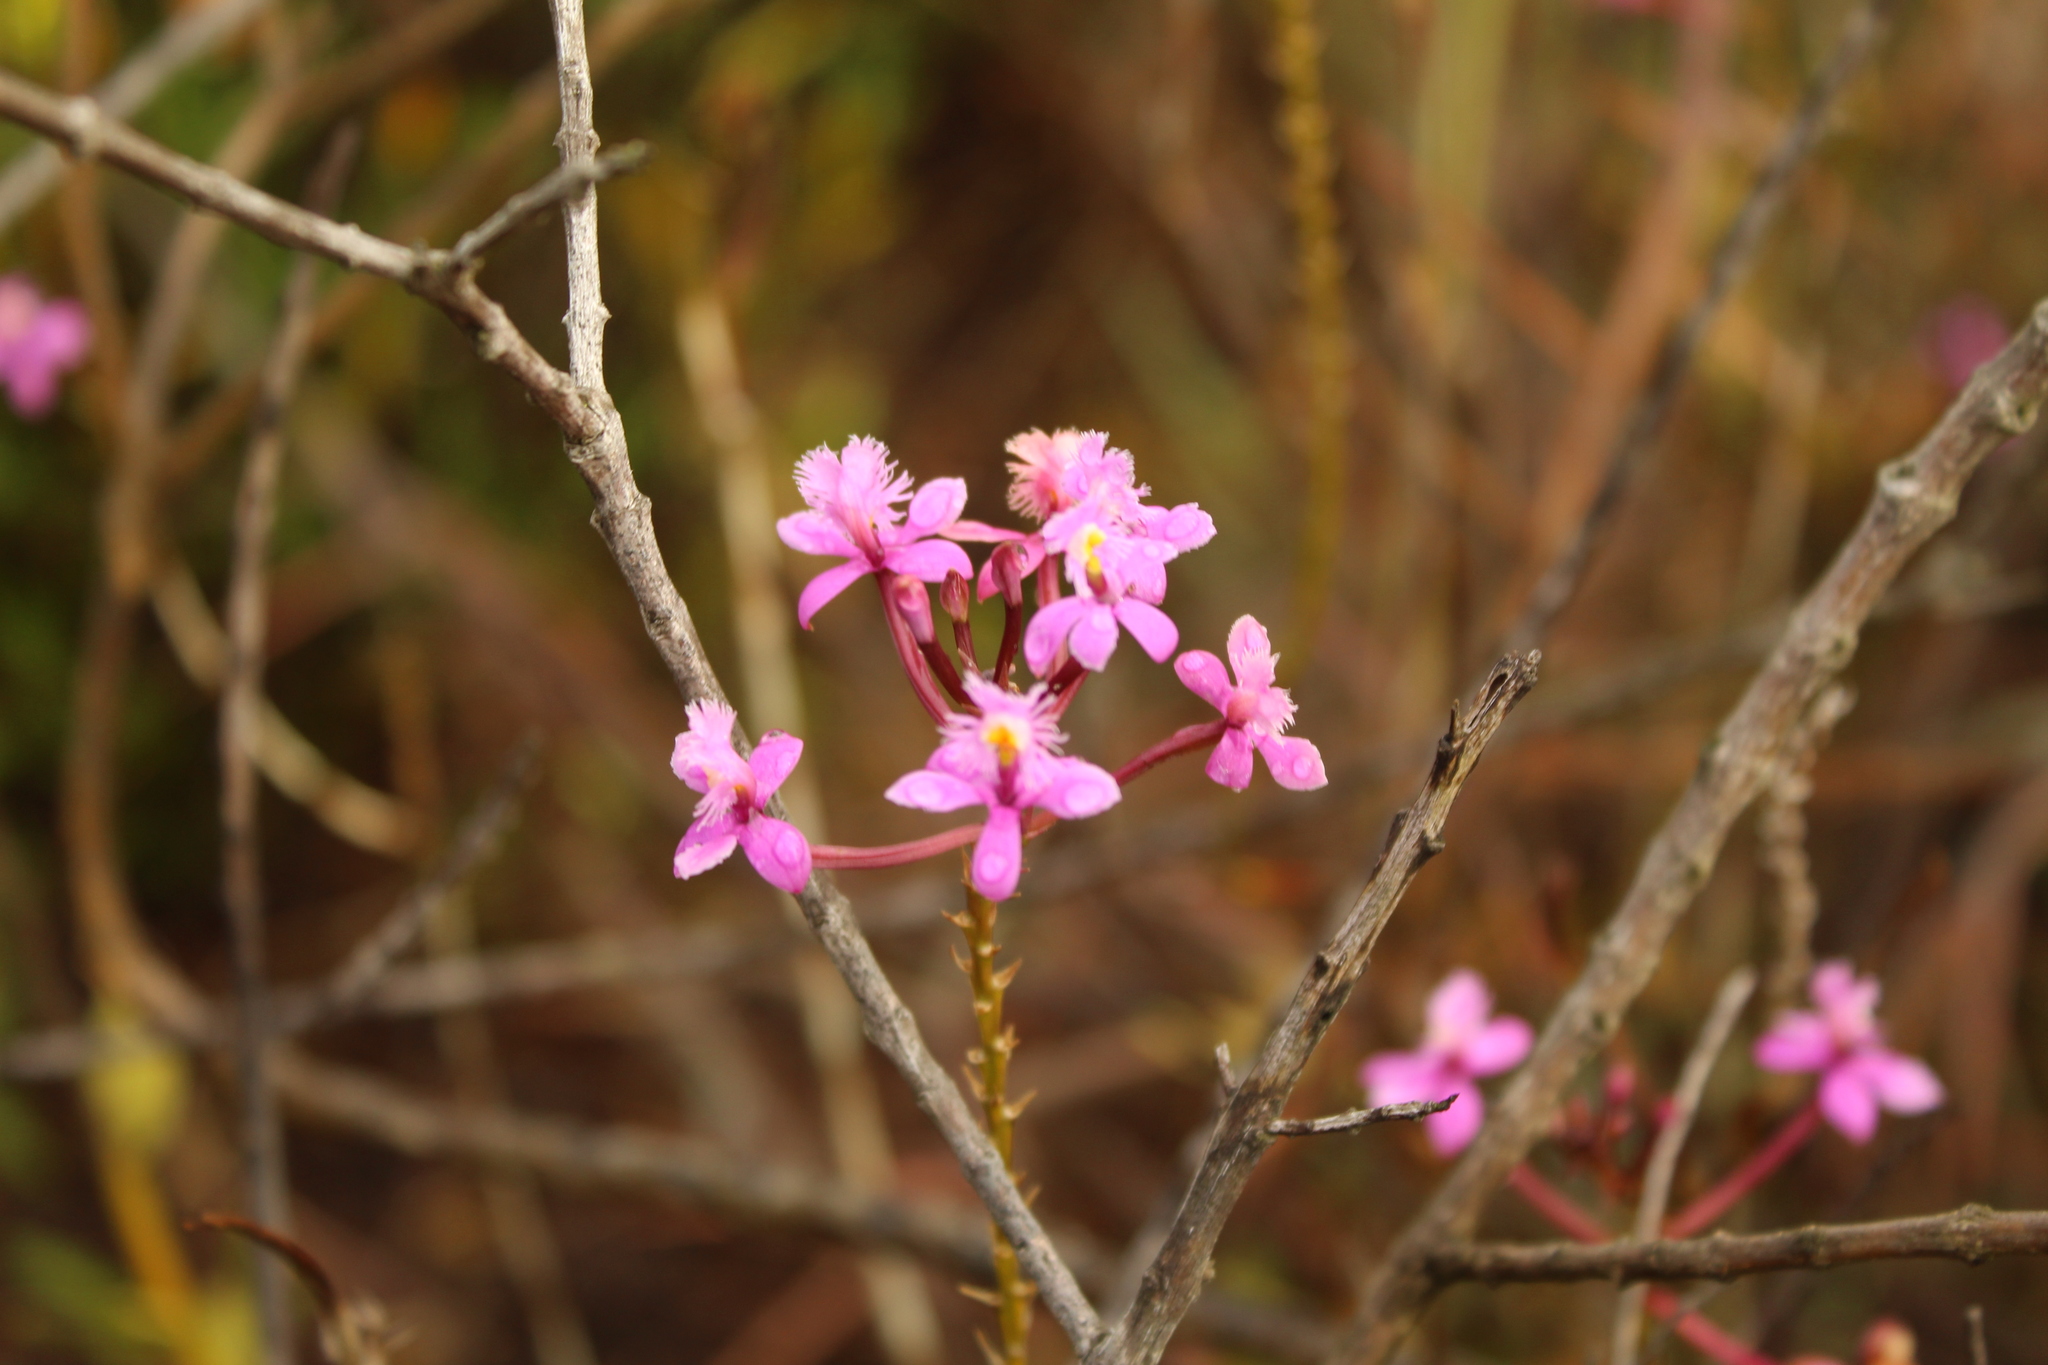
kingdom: Plantae
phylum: Tracheophyta
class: Liliopsida
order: Asparagales
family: Orchidaceae
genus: Epidendrum
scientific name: Epidendrum arachnoglossum
